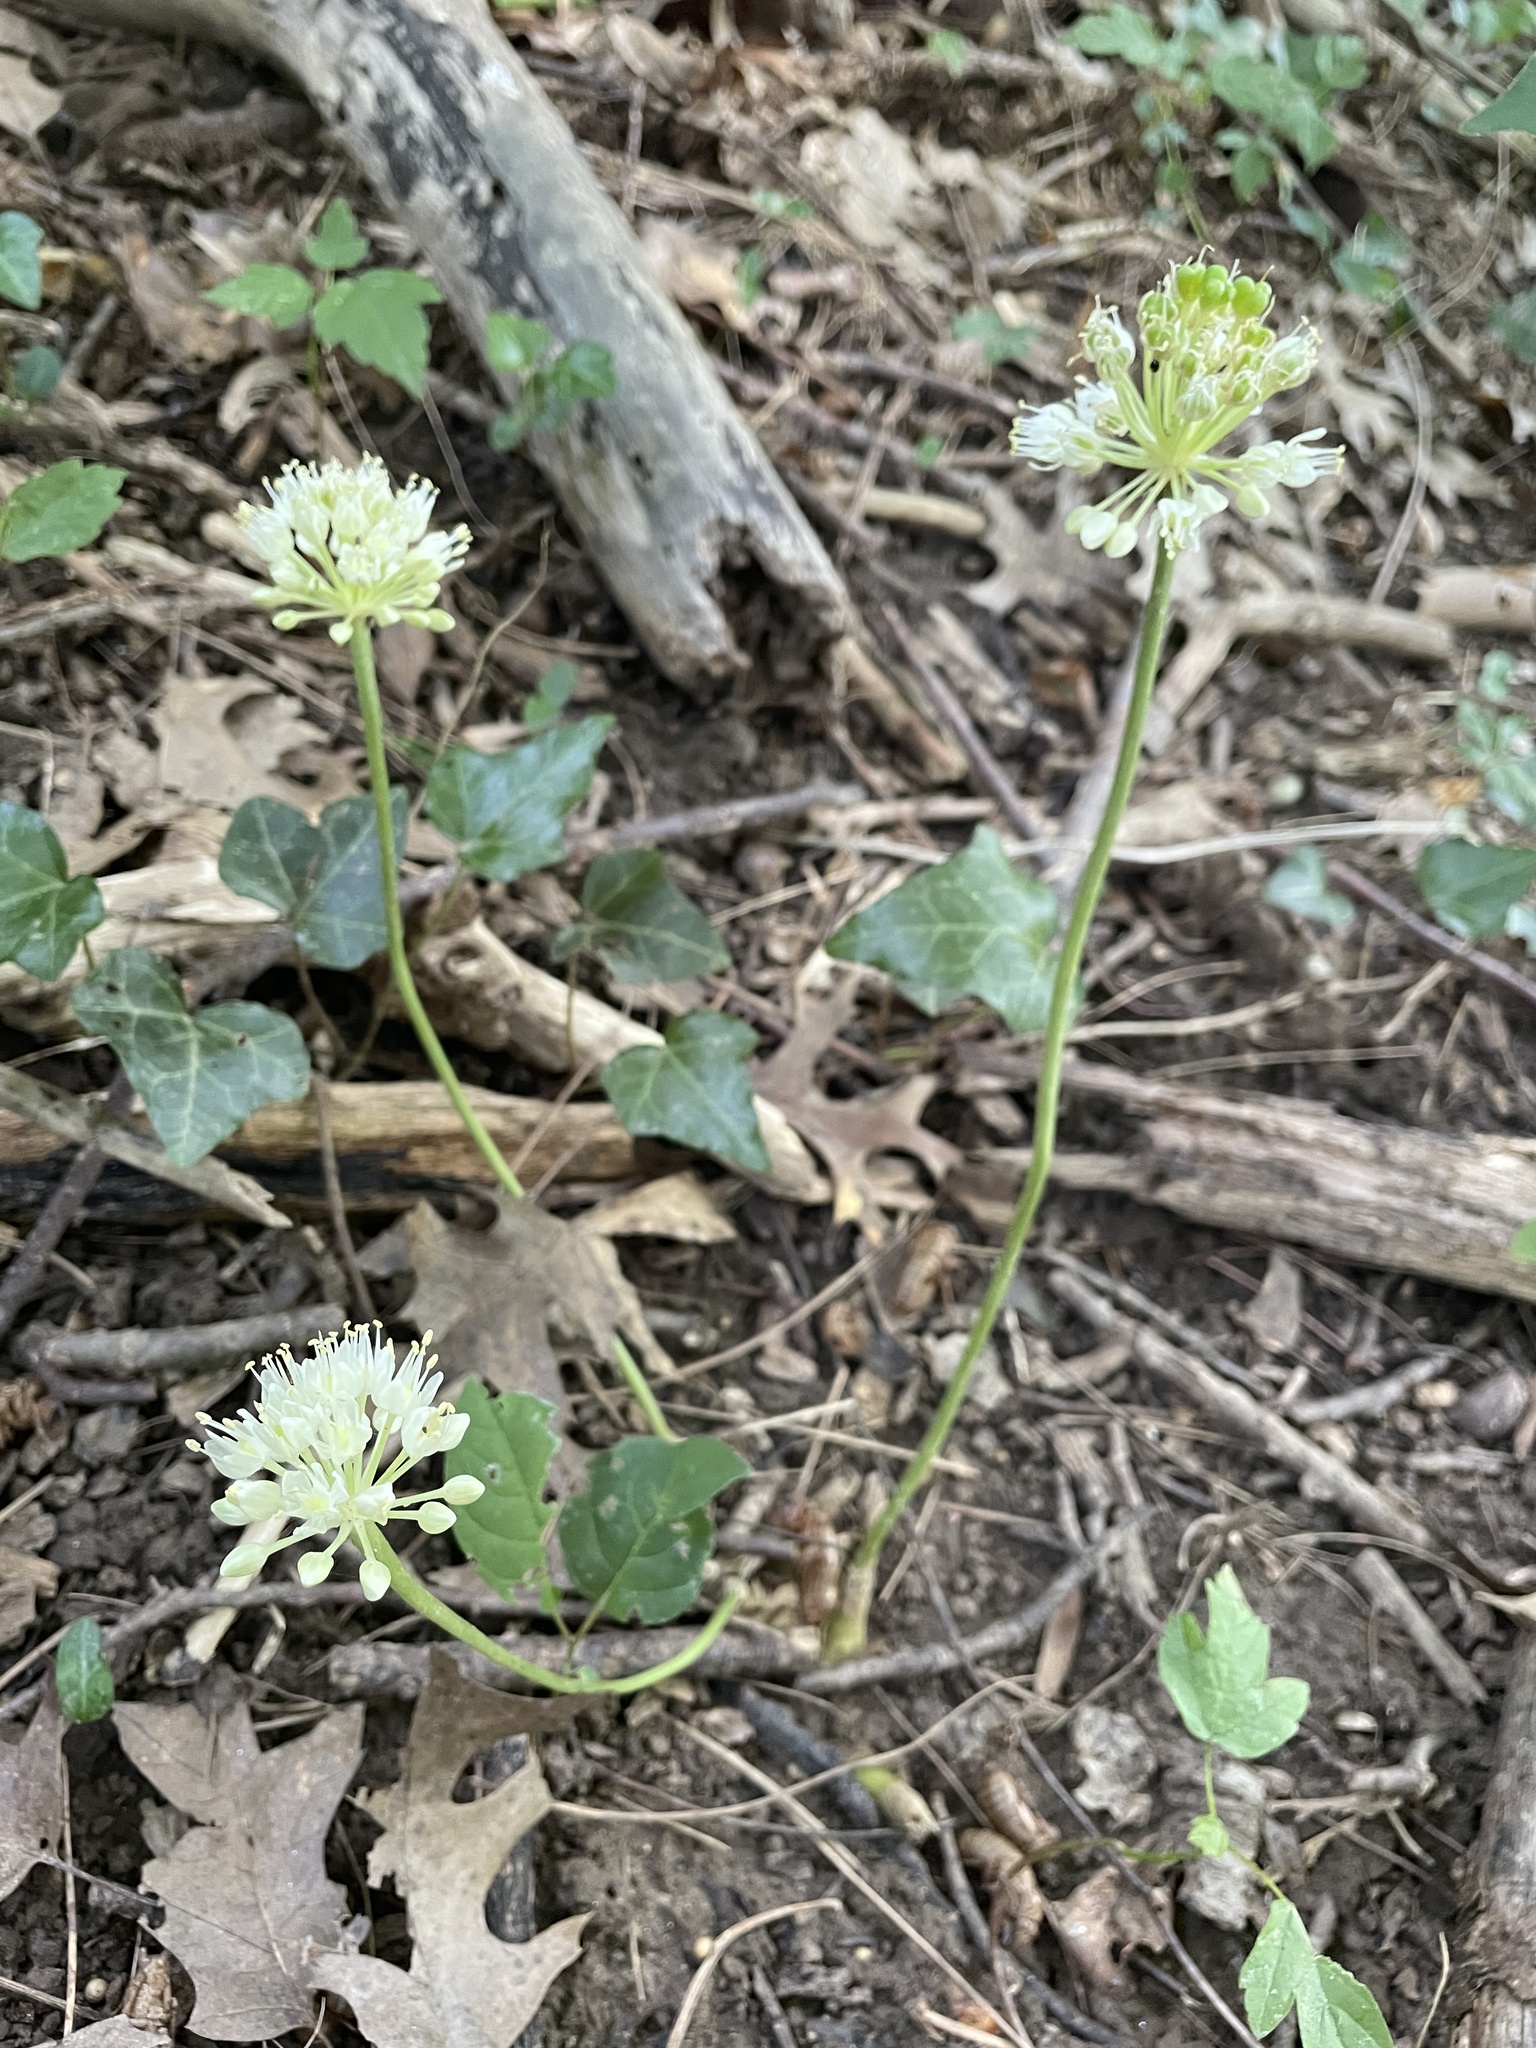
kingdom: Plantae
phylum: Tracheophyta
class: Liliopsida
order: Asparagales
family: Amaryllidaceae
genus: Allium
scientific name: Allium tricoccum
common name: Ramp
